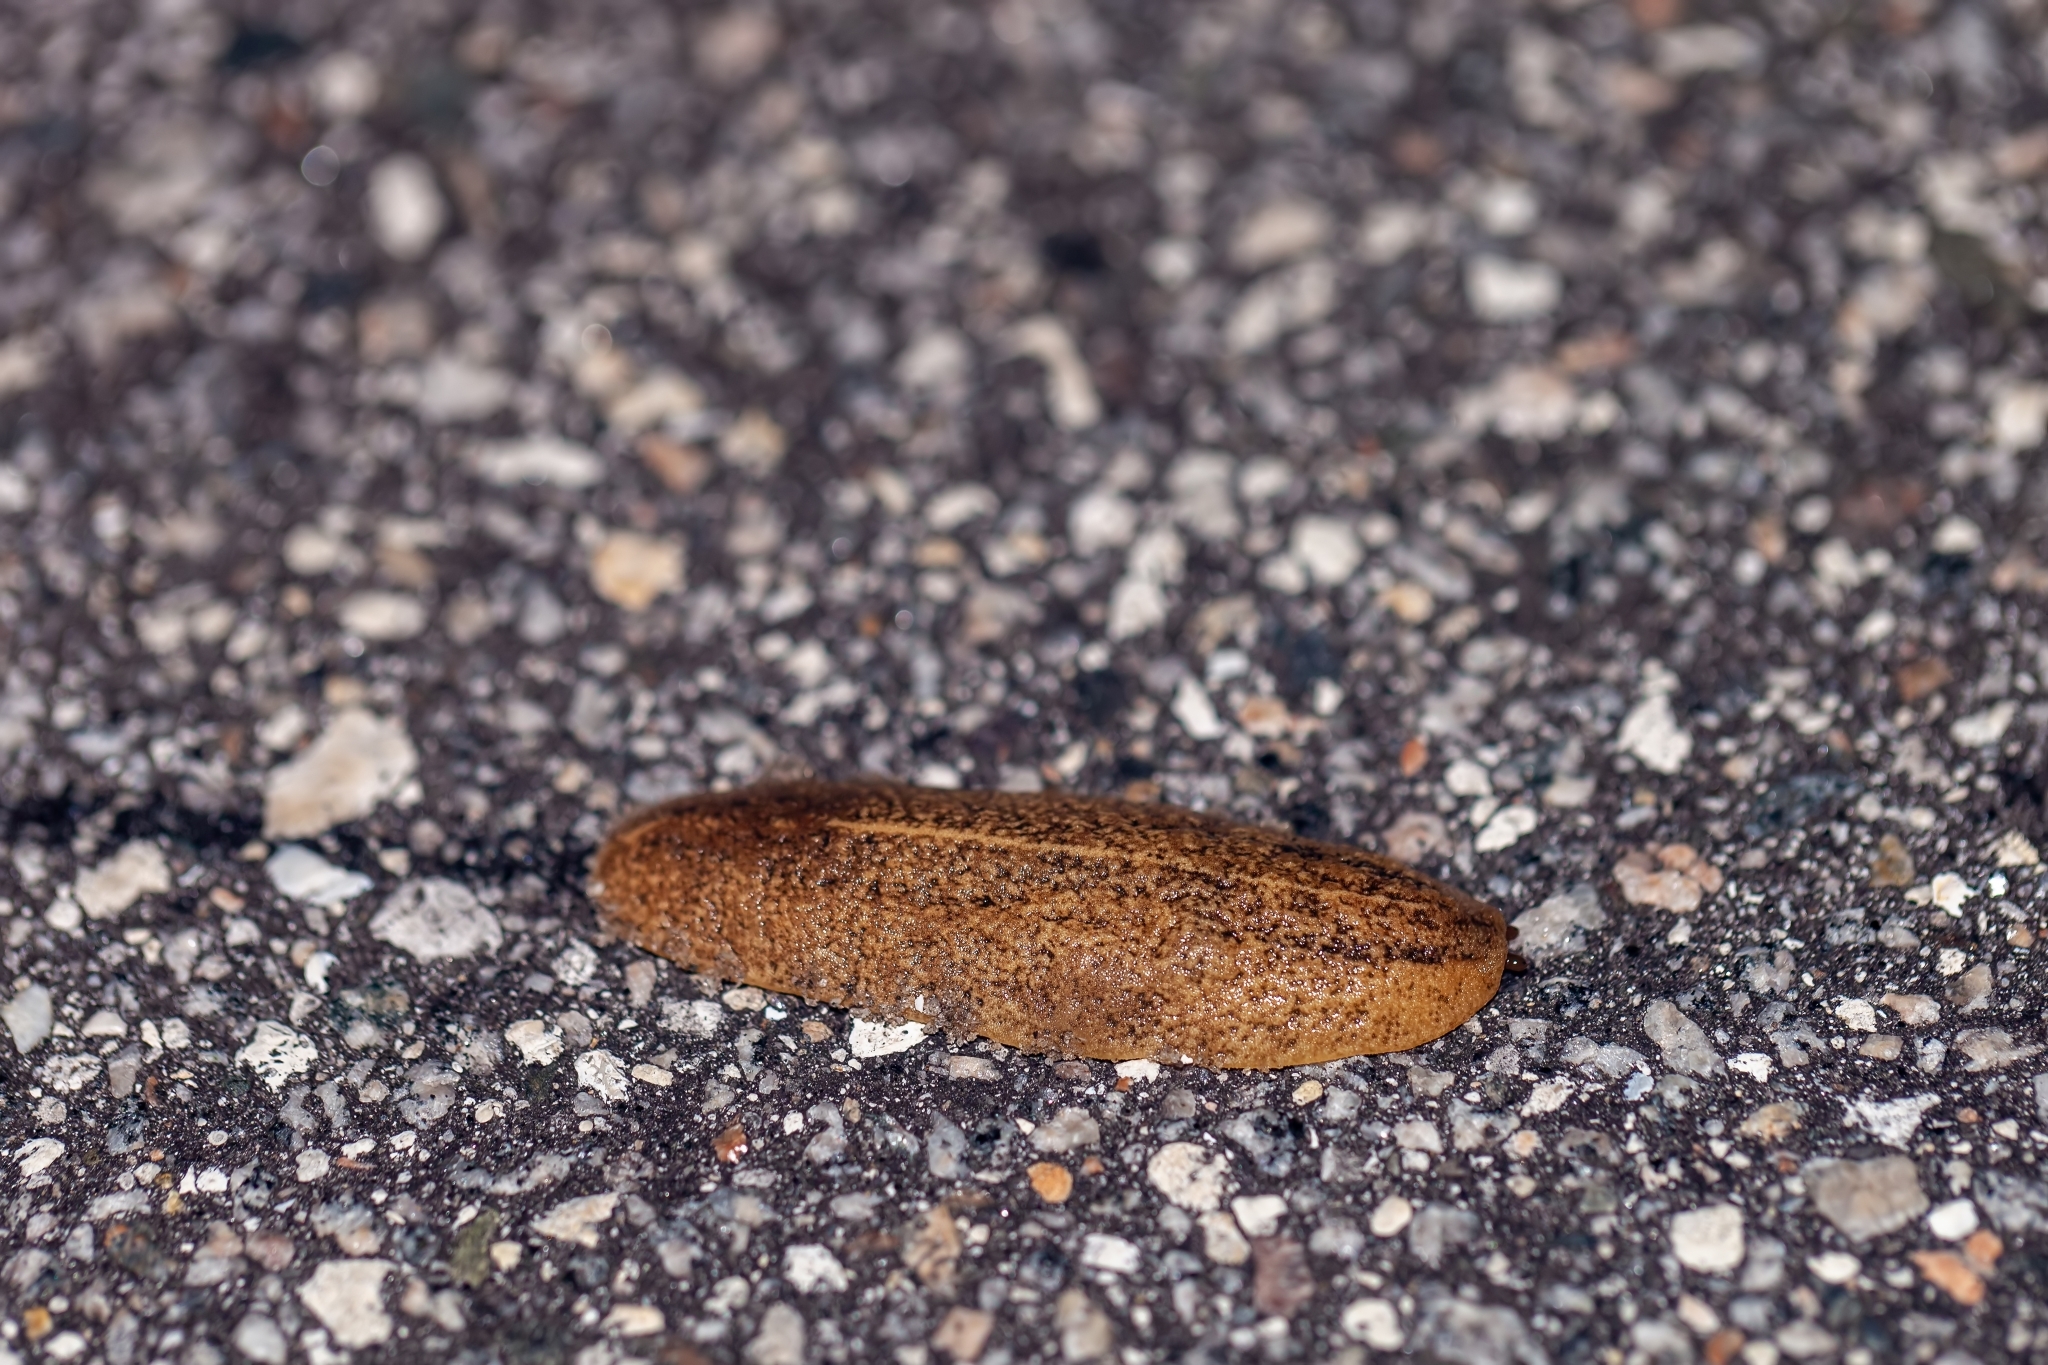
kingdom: Animalia
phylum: Mollusca
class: Gastropoda
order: Systellommatophora
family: Veronicellidae
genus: Leidyula
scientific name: Leidyula floridana
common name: Florida leatherleaf
